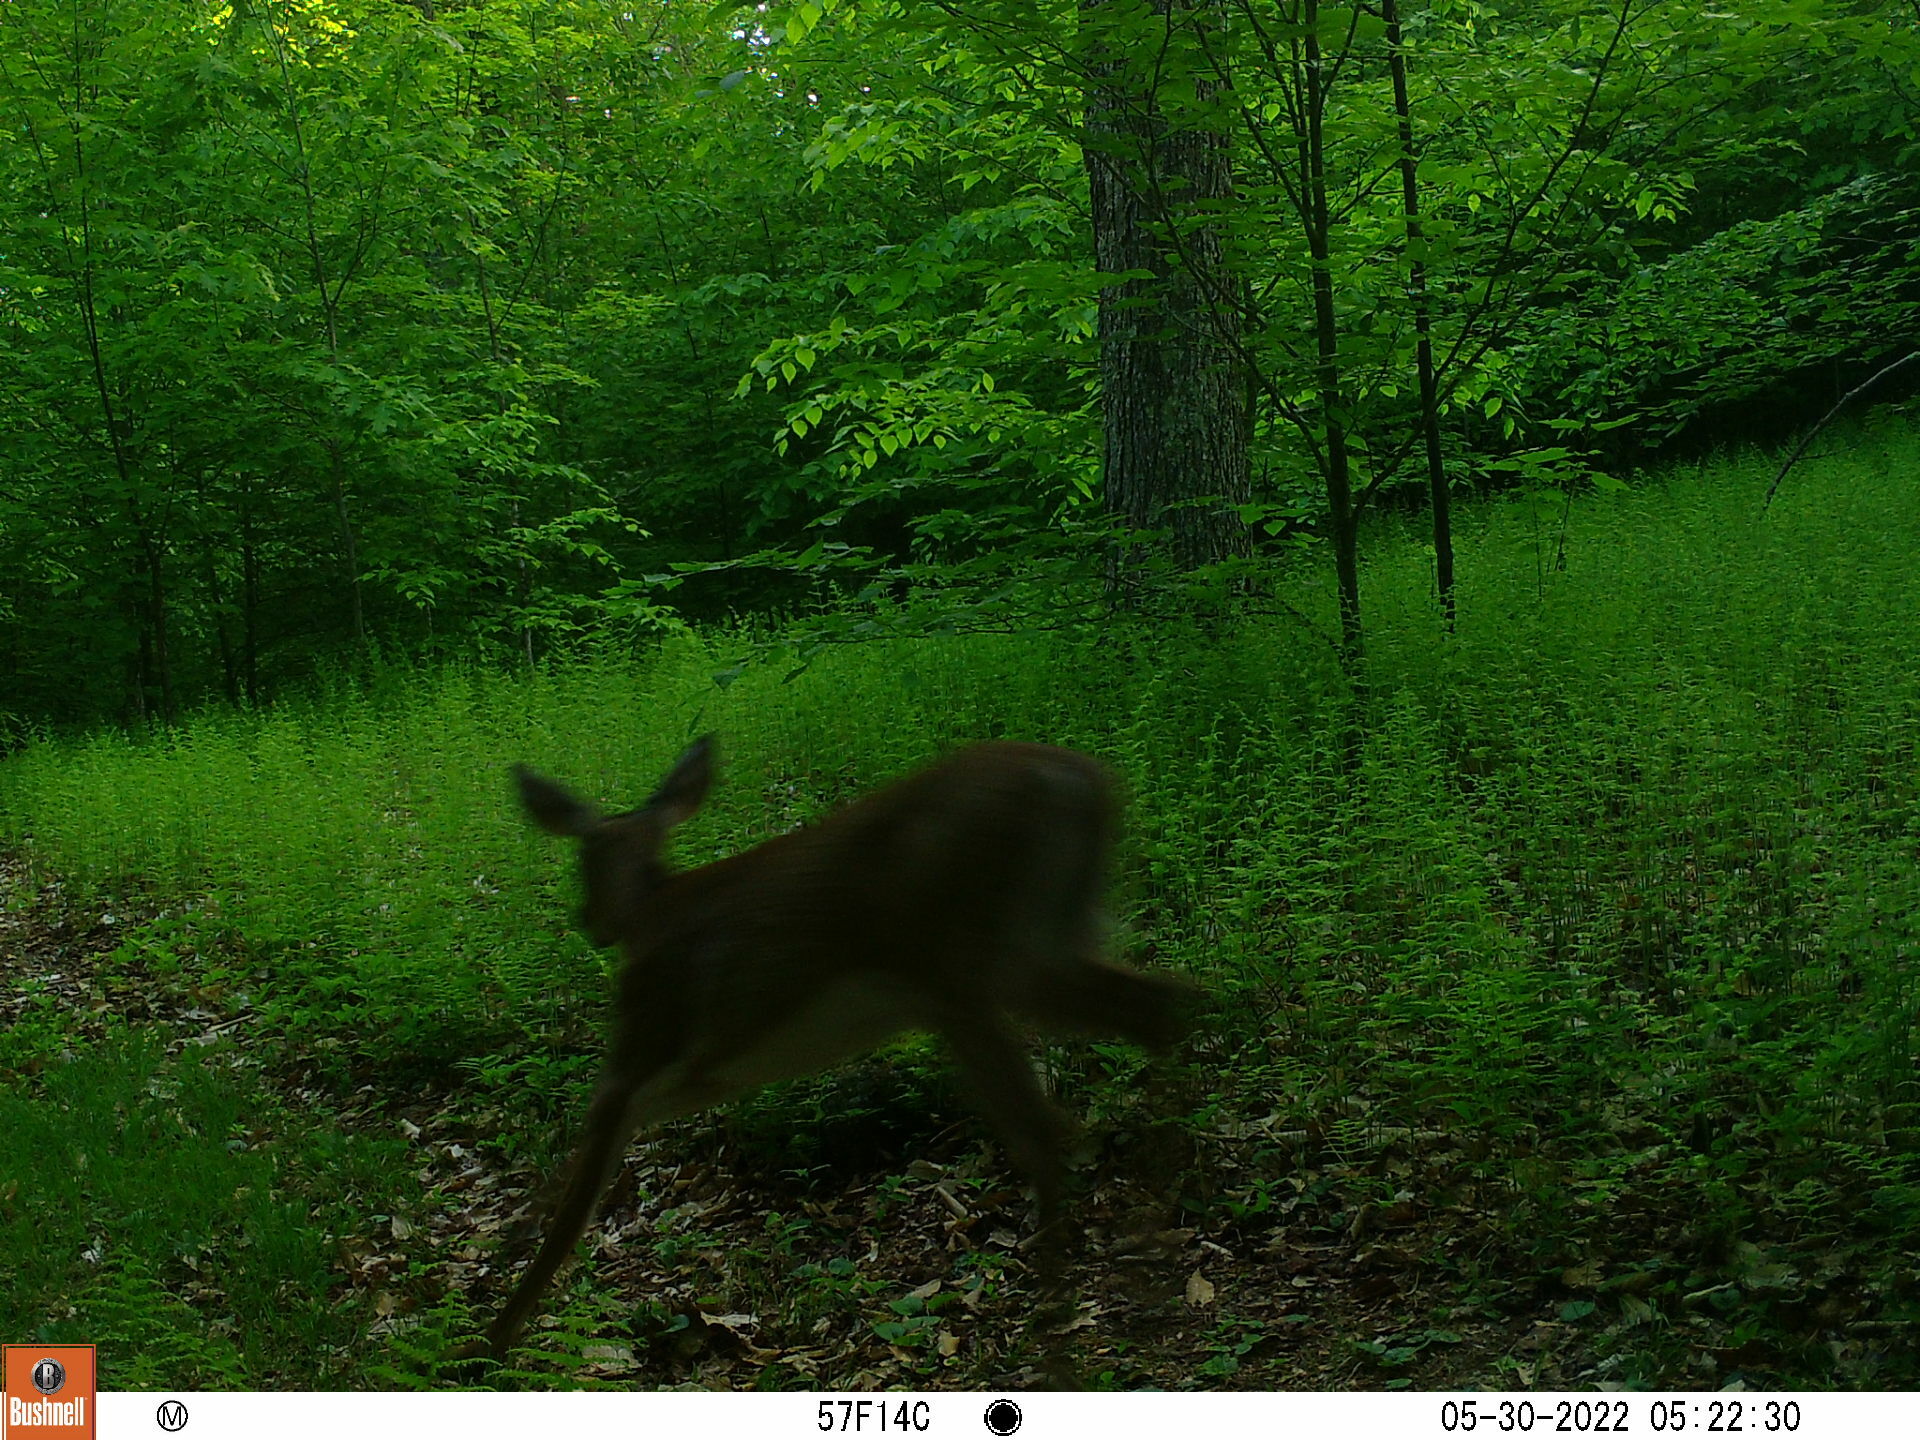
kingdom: Animalia
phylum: Chordata
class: Mammalia
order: Artiodactyla
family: Cervidae
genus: Odocoileus
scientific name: Odocoileus virginianus
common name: White-tailed deer
